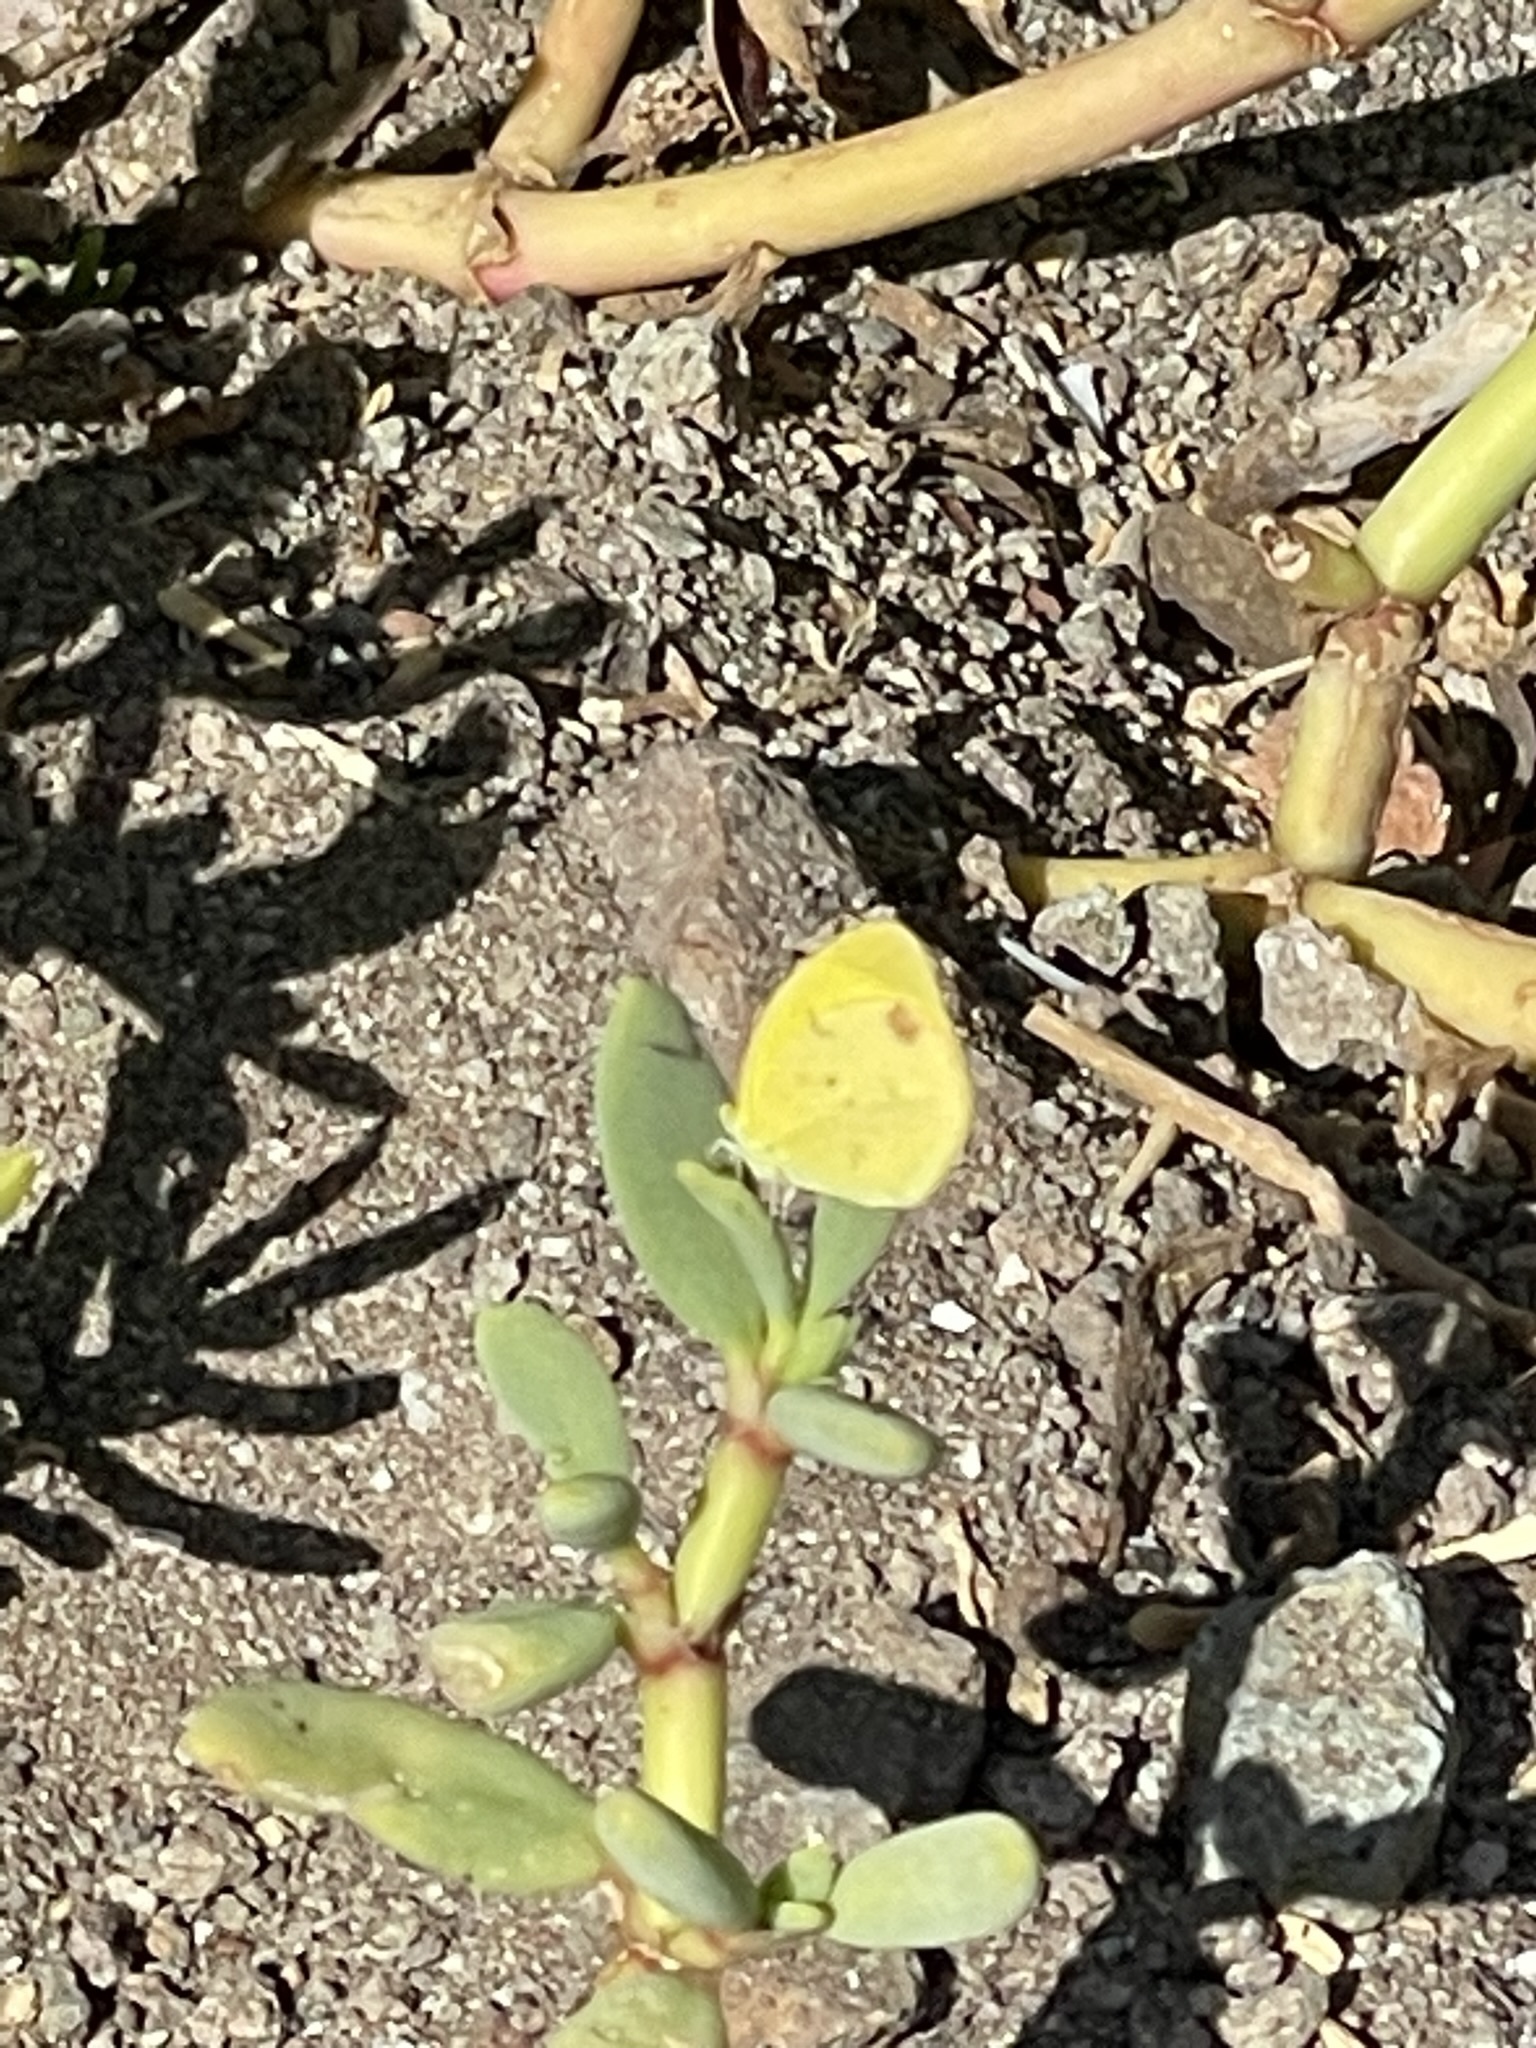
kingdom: Plantae
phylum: Tracheophyta
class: Magnoliopsida
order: Caryophyllales
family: Aizoaceae
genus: Sesuvium
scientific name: Sesuvium portulacastrum
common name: Sea-purslane
